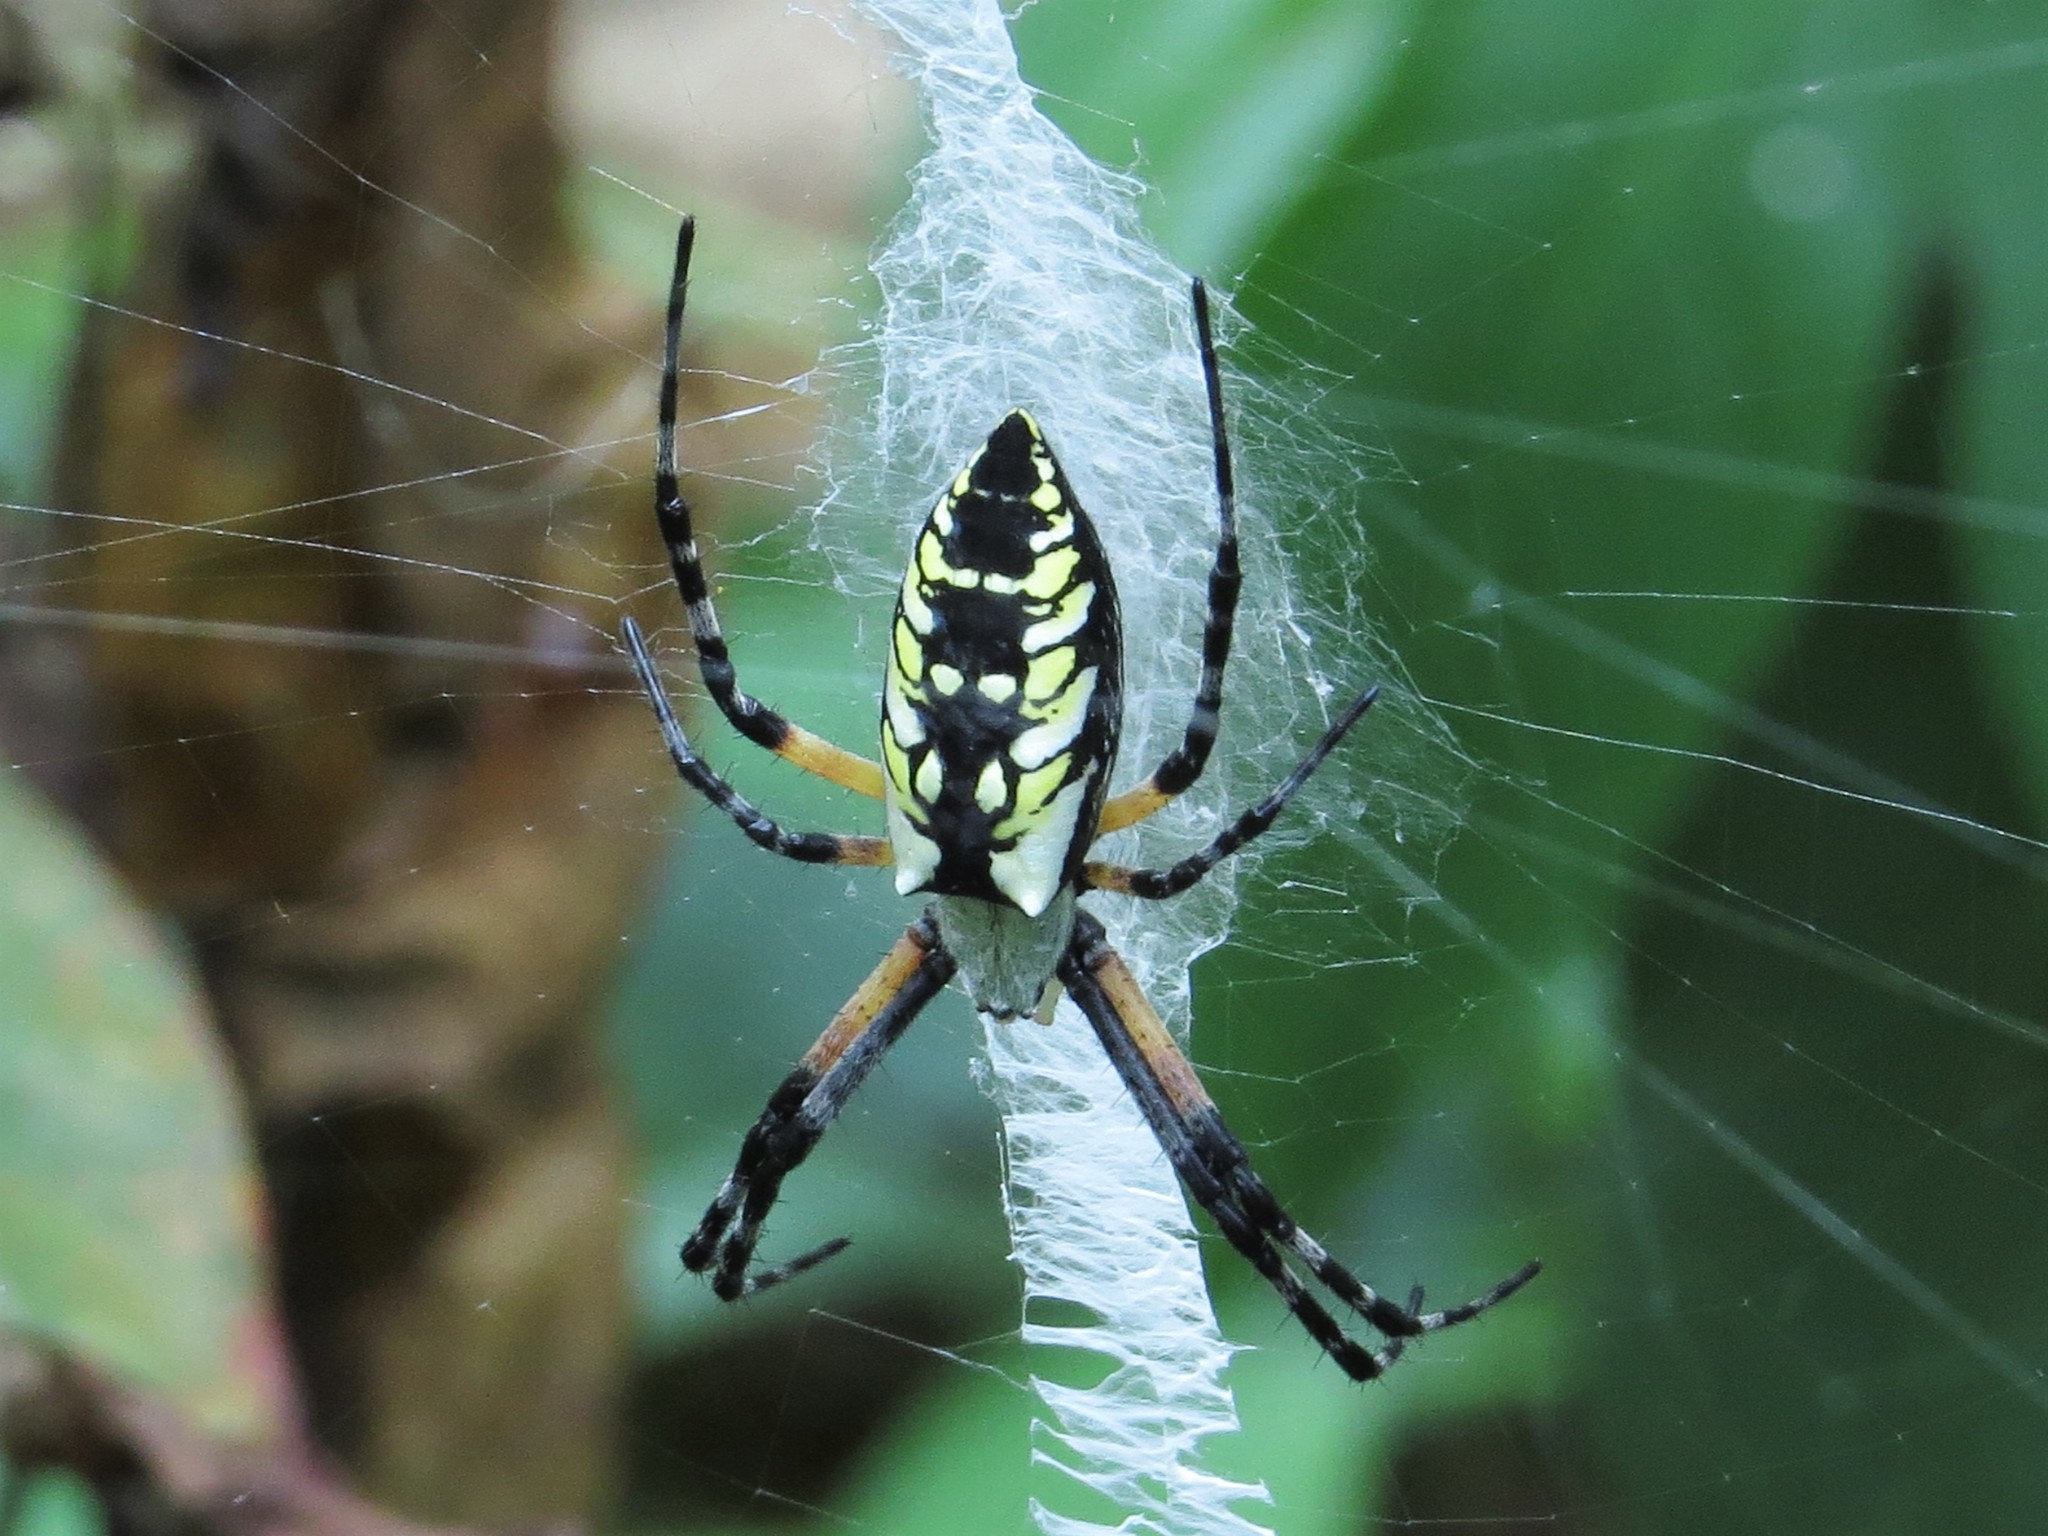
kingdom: Animalia
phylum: Arthropoda
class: Arachnida
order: Araneae
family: Araneidae
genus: Argiope
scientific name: Argiope aurantia
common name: Orb weavers
